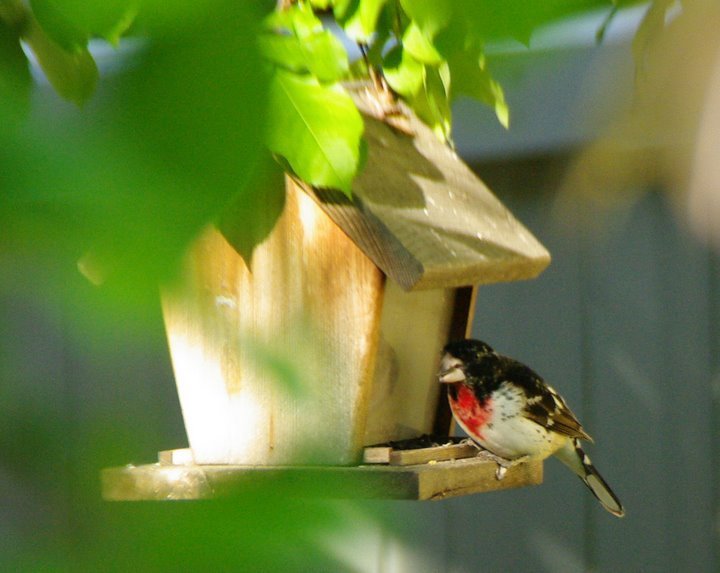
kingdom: Animalia
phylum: Chordata
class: Aves
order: Passeriformes
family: Cardinalidae
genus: Pheucticus
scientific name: Pheucticus ludovicianus
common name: Rose-breasted grosbeak
